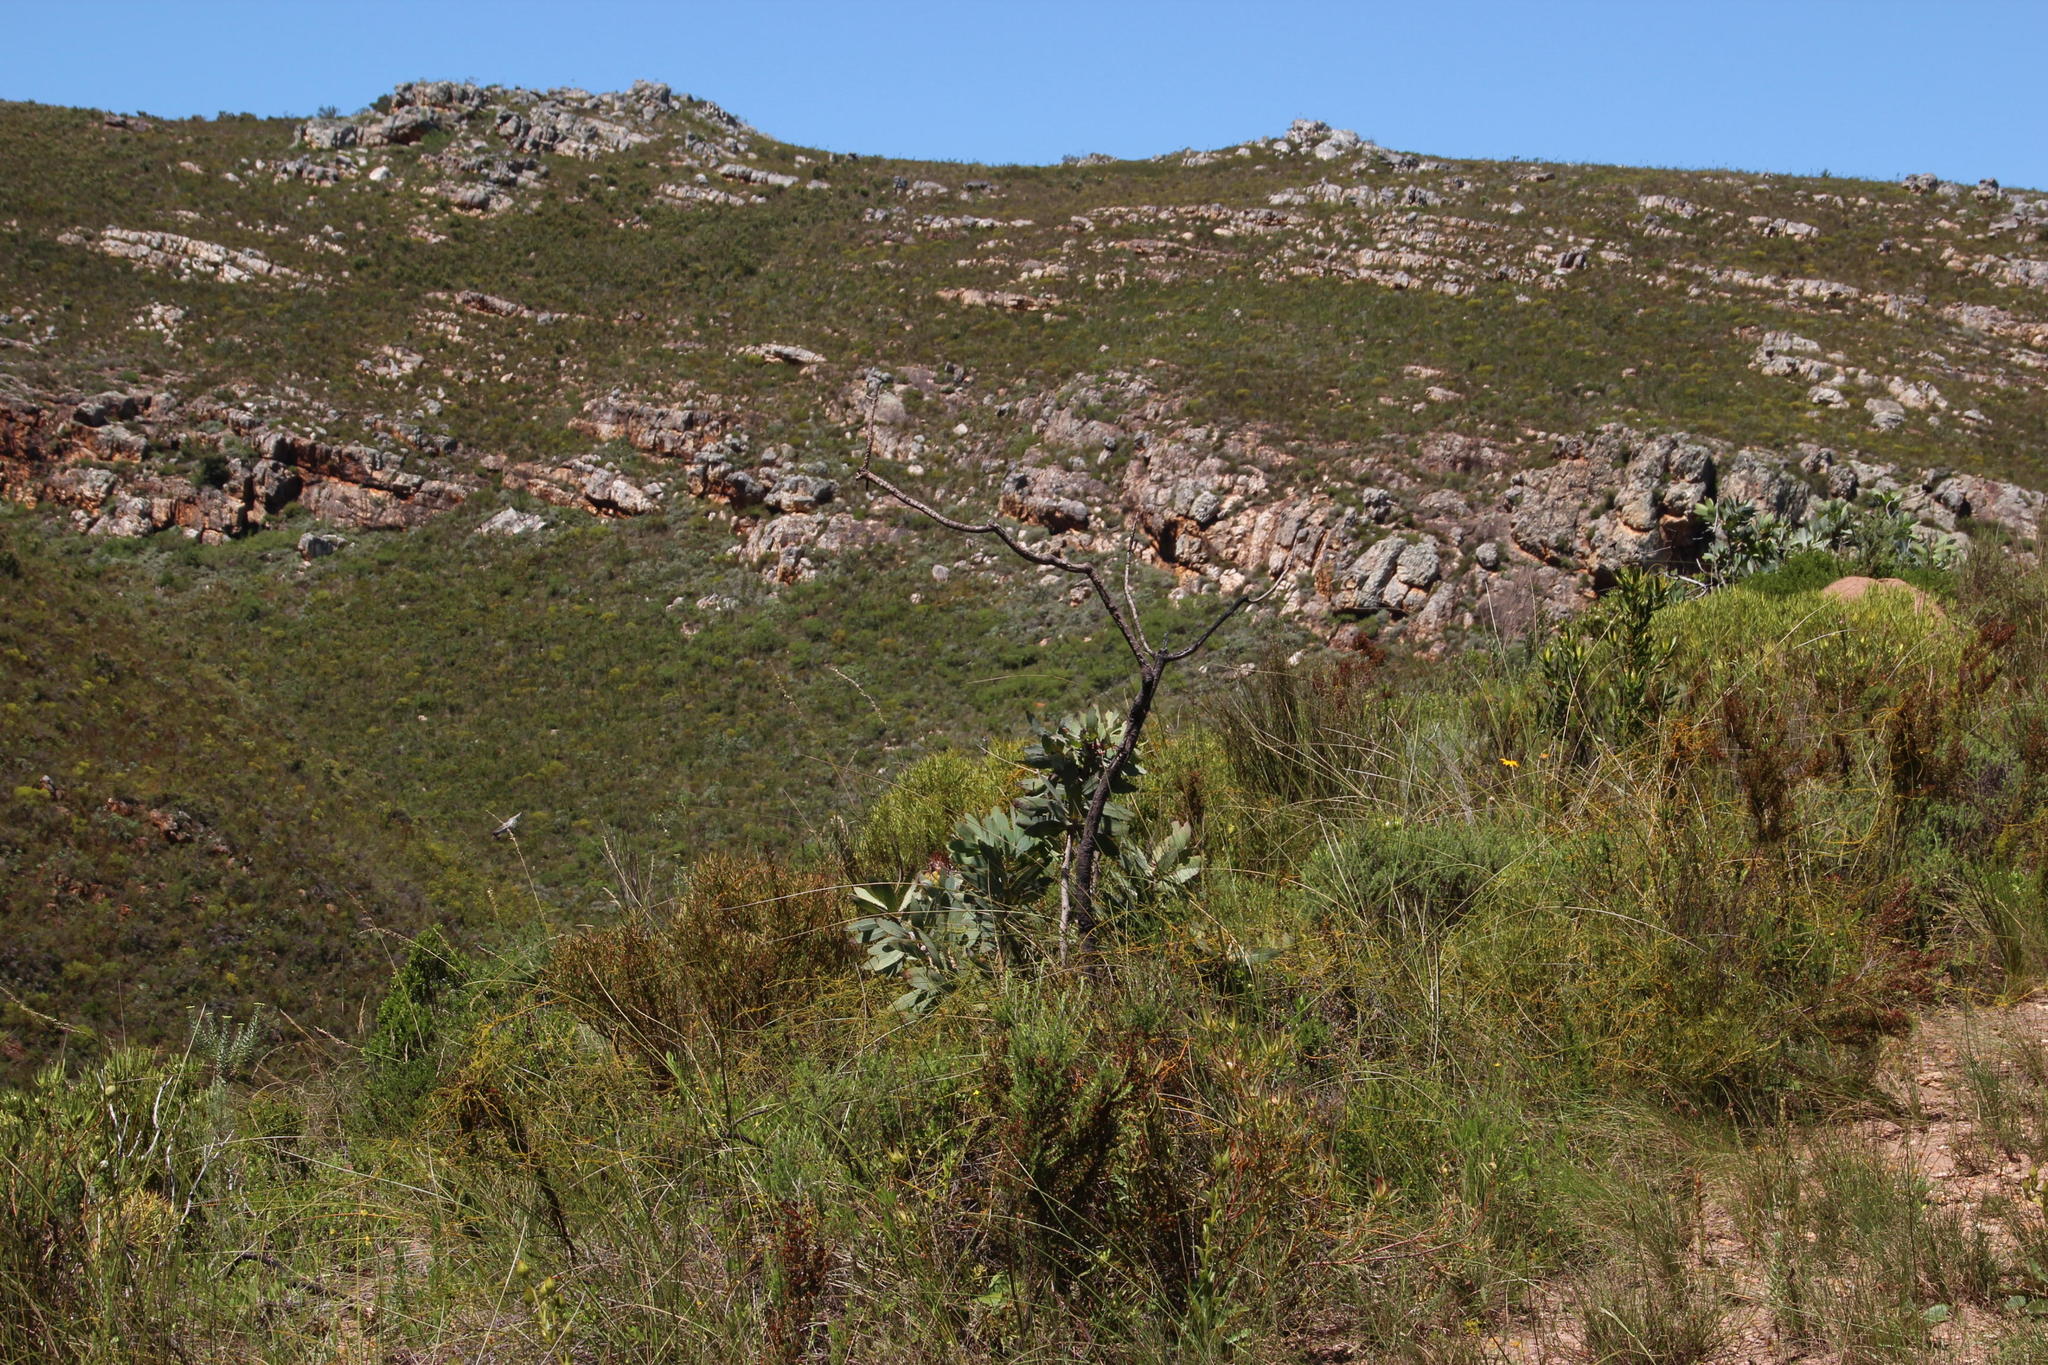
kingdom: Plantae
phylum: Tracheophyta
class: Magnoliopsida
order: Proteales
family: Proteaceae
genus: Protea
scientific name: Protea nitida
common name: Tree protea
